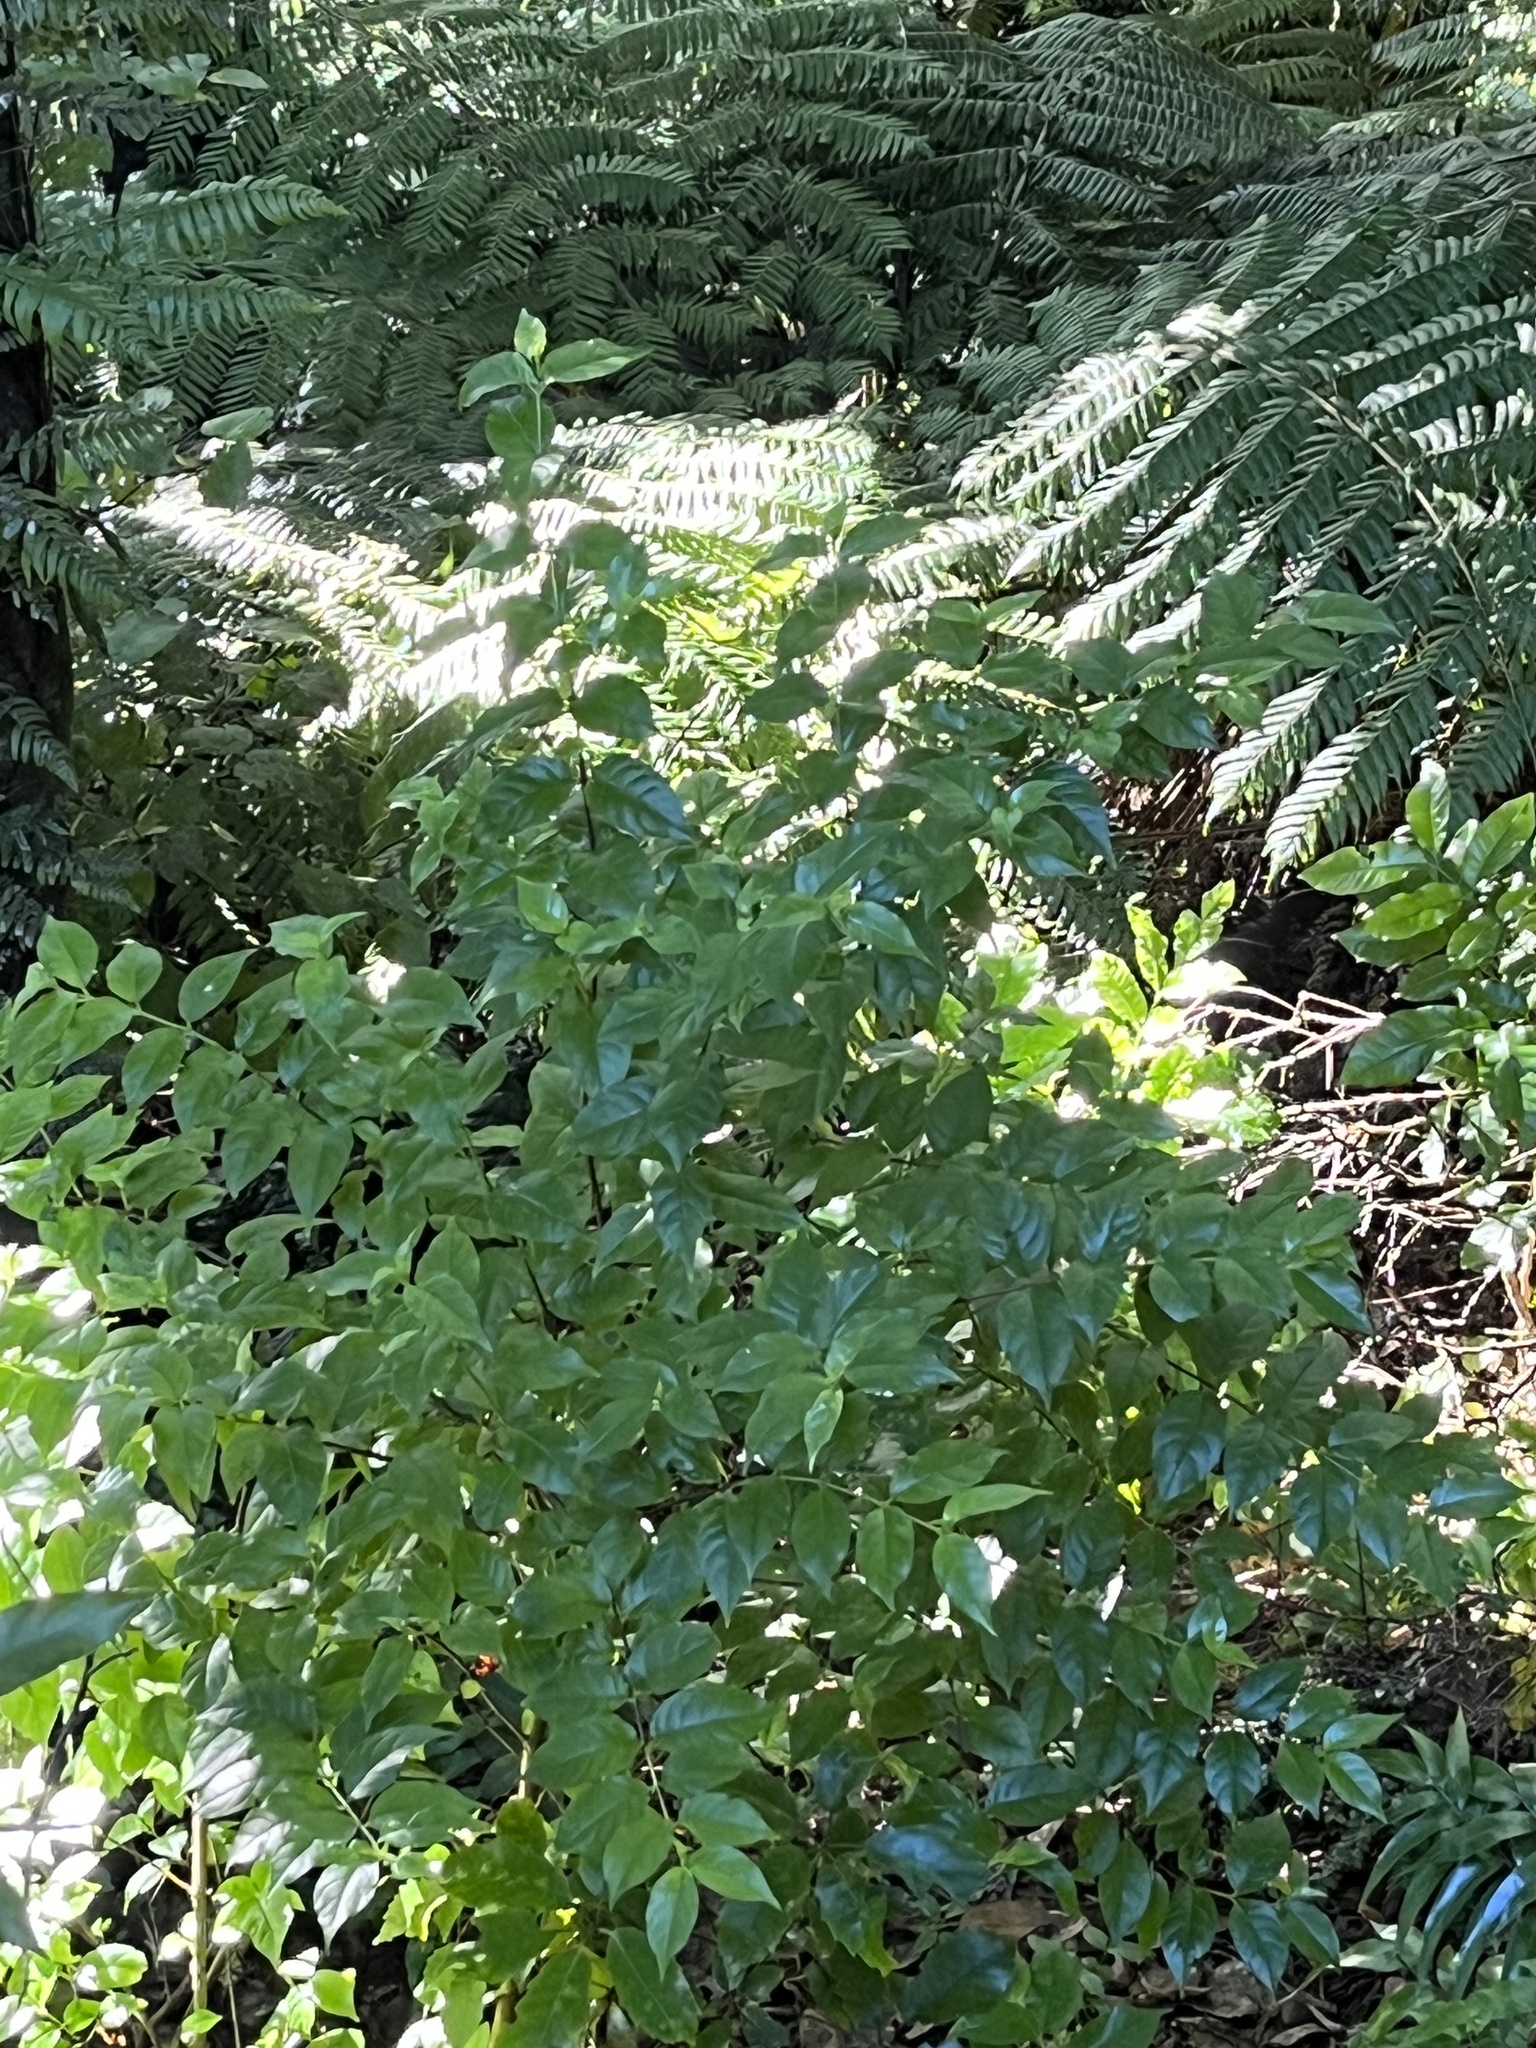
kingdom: Plantae
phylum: Tracheophyta
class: Magnoliopsida
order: Gentianales
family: Loganiaceae
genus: Geniostoma
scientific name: Geniostoma ligustrifolium
